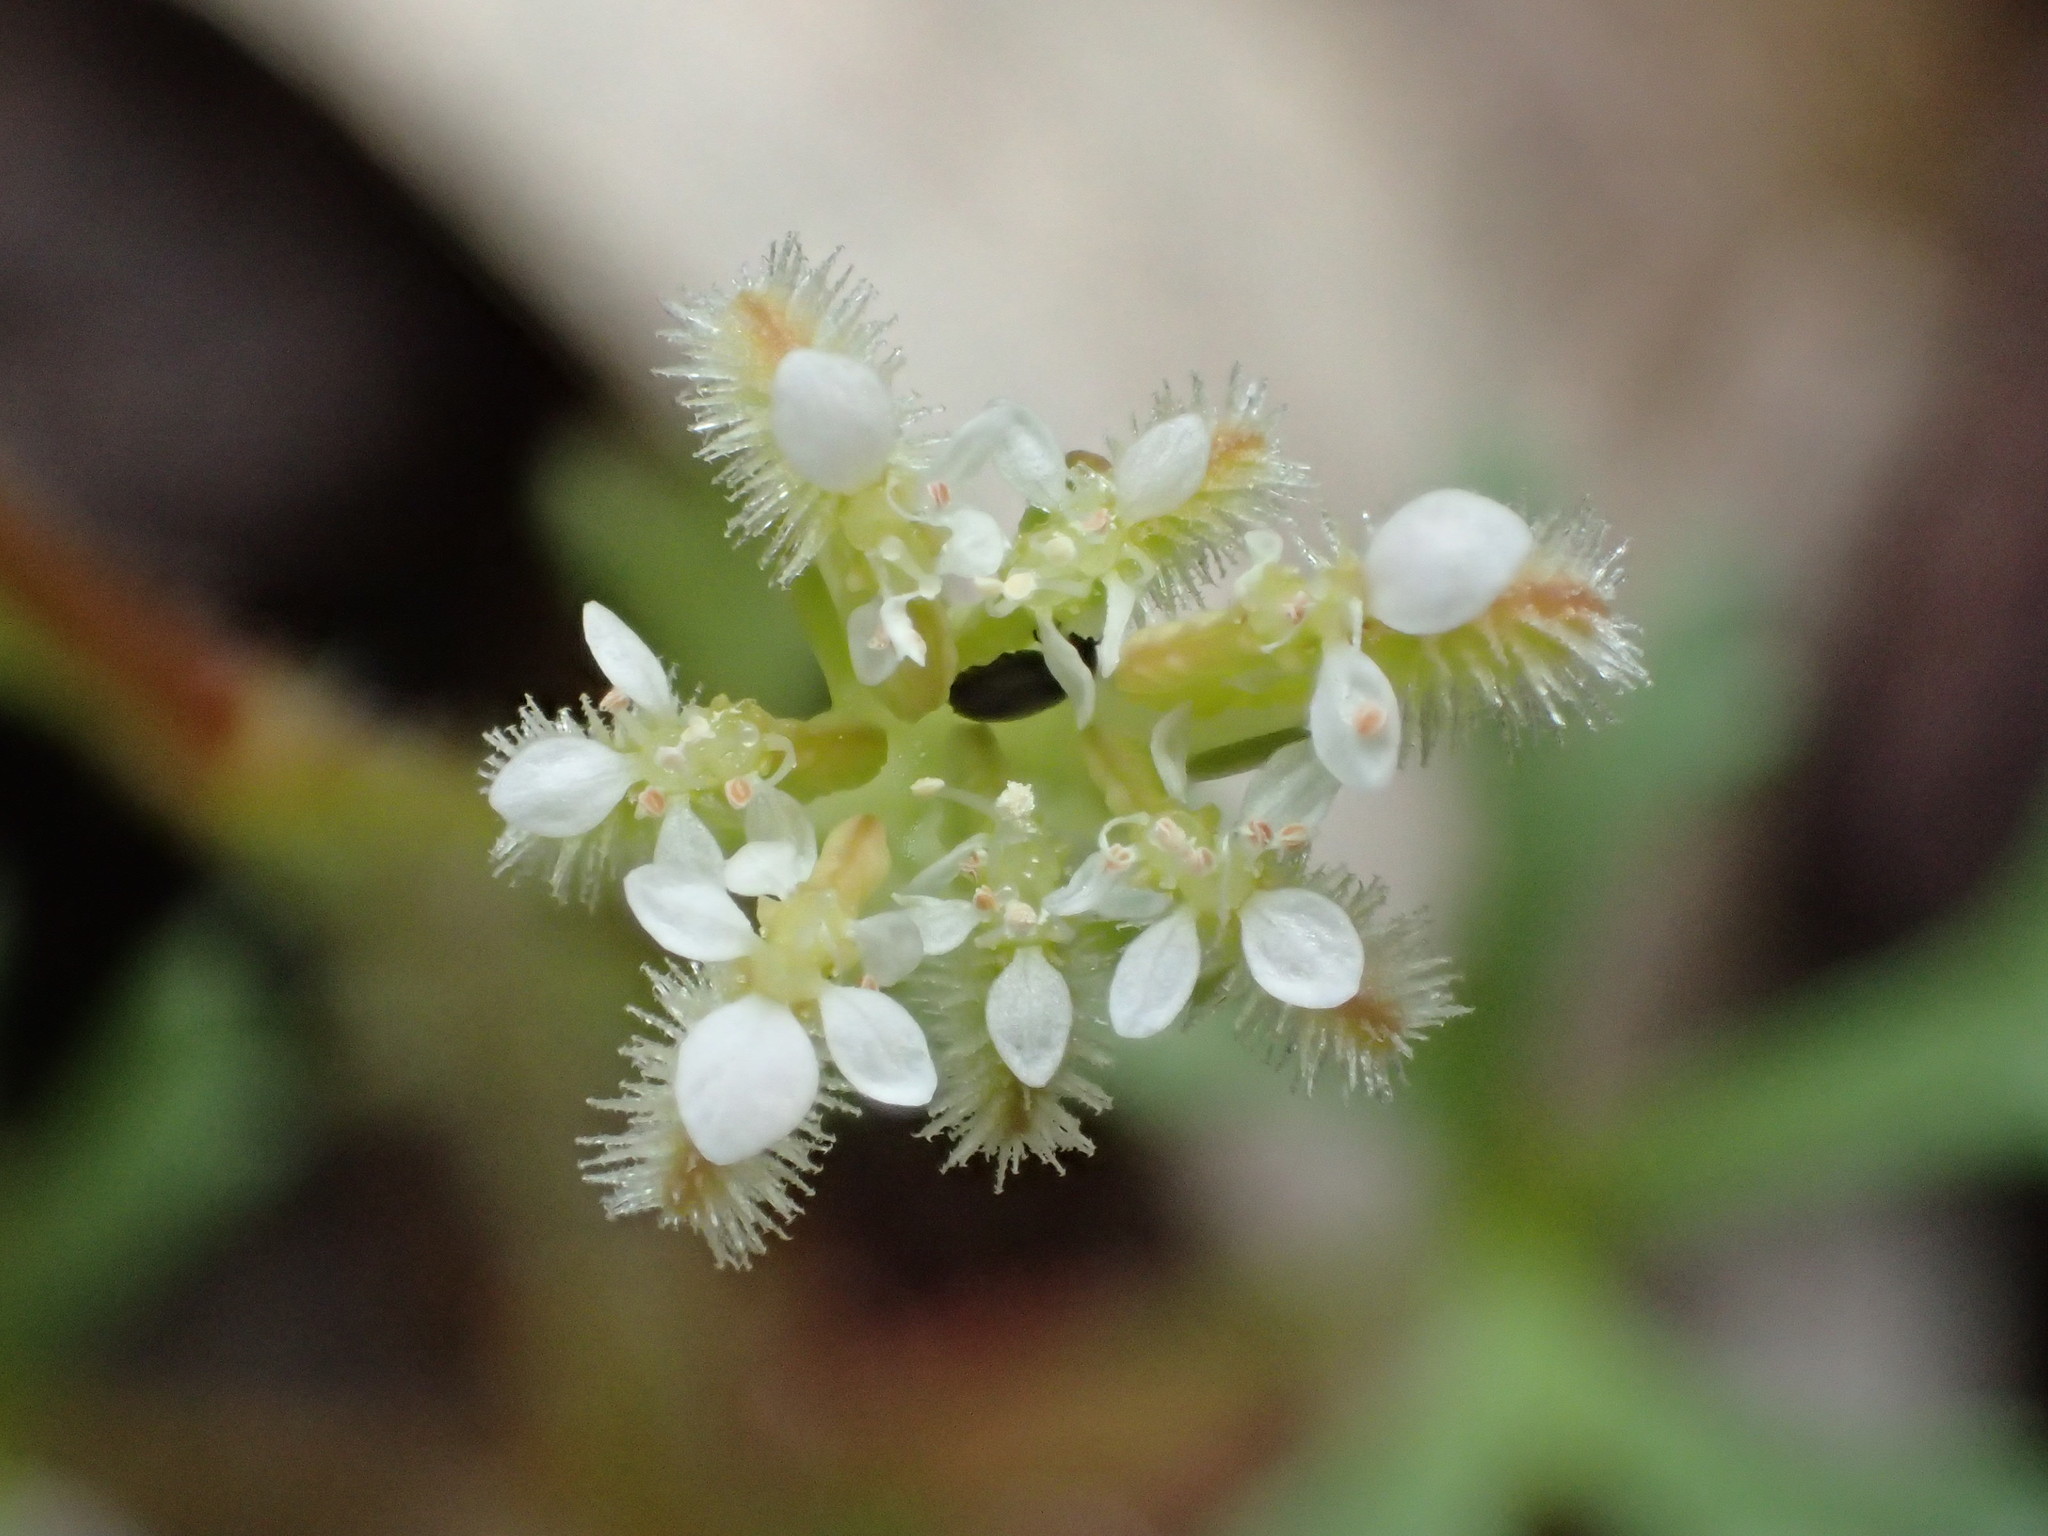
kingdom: Plantae
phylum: Tracheophyta
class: Magnoliopsida
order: Apiales
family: Araliaceae
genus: Trachymene
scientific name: Trachymene pilosa
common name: Dwarf trachymene
